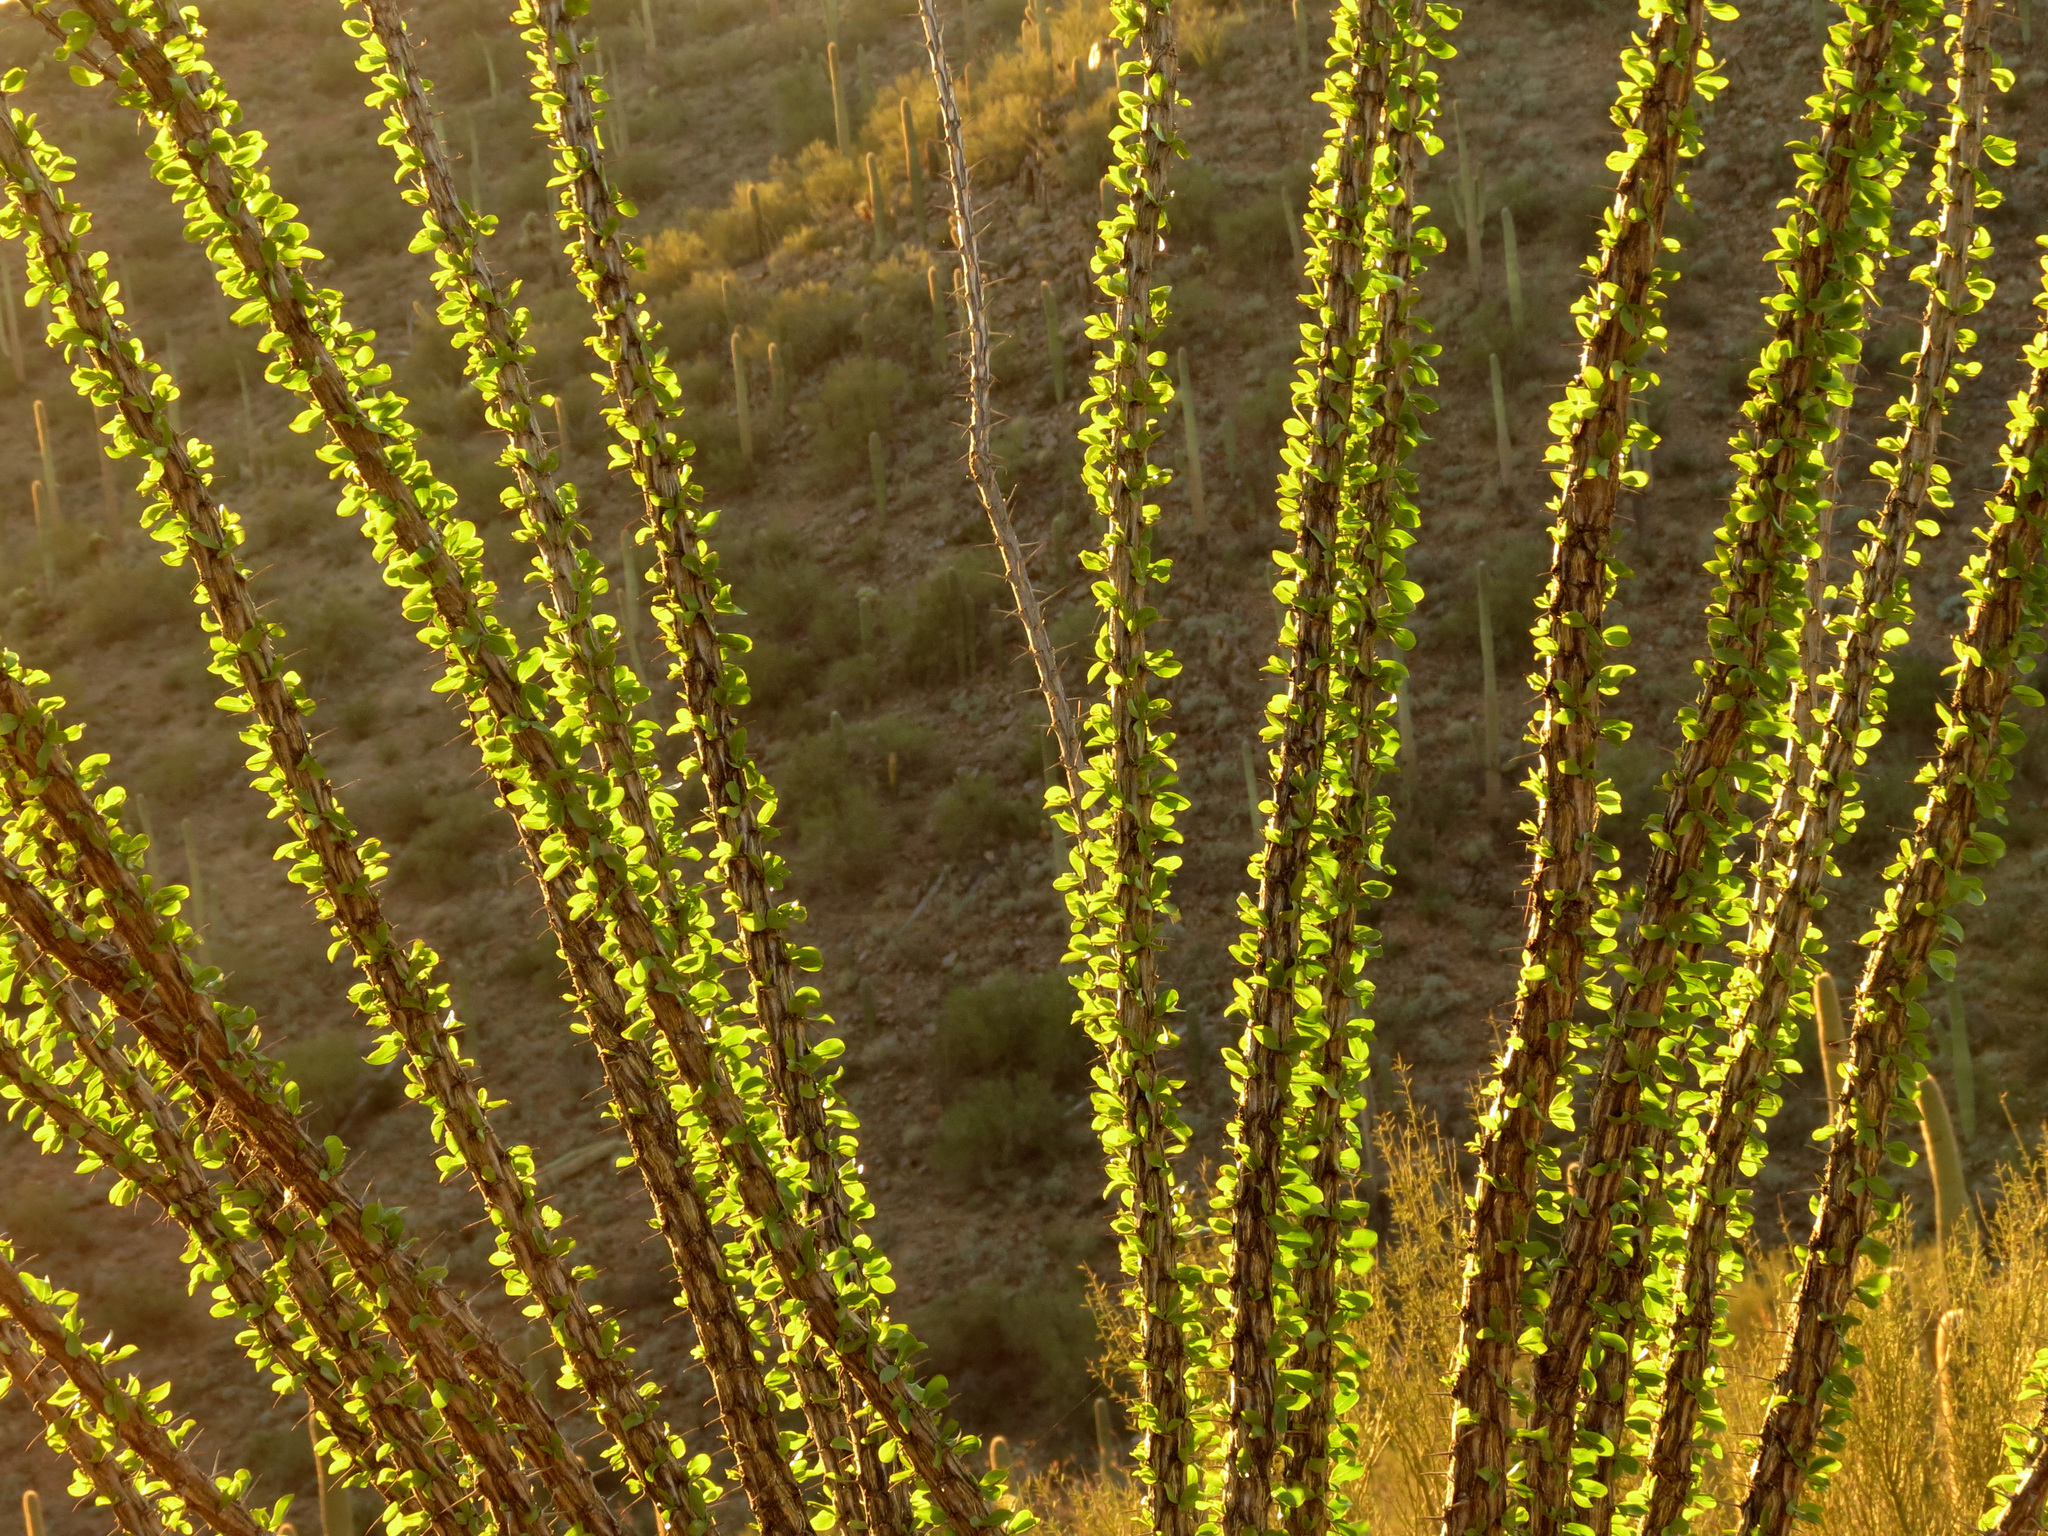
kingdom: Plantae
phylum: Tracheophyta
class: Magnoliopsida
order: Ericales
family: Fouquieriaceae
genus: Fouquieria
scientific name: Fouquieria splendens
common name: Vine-cactus
